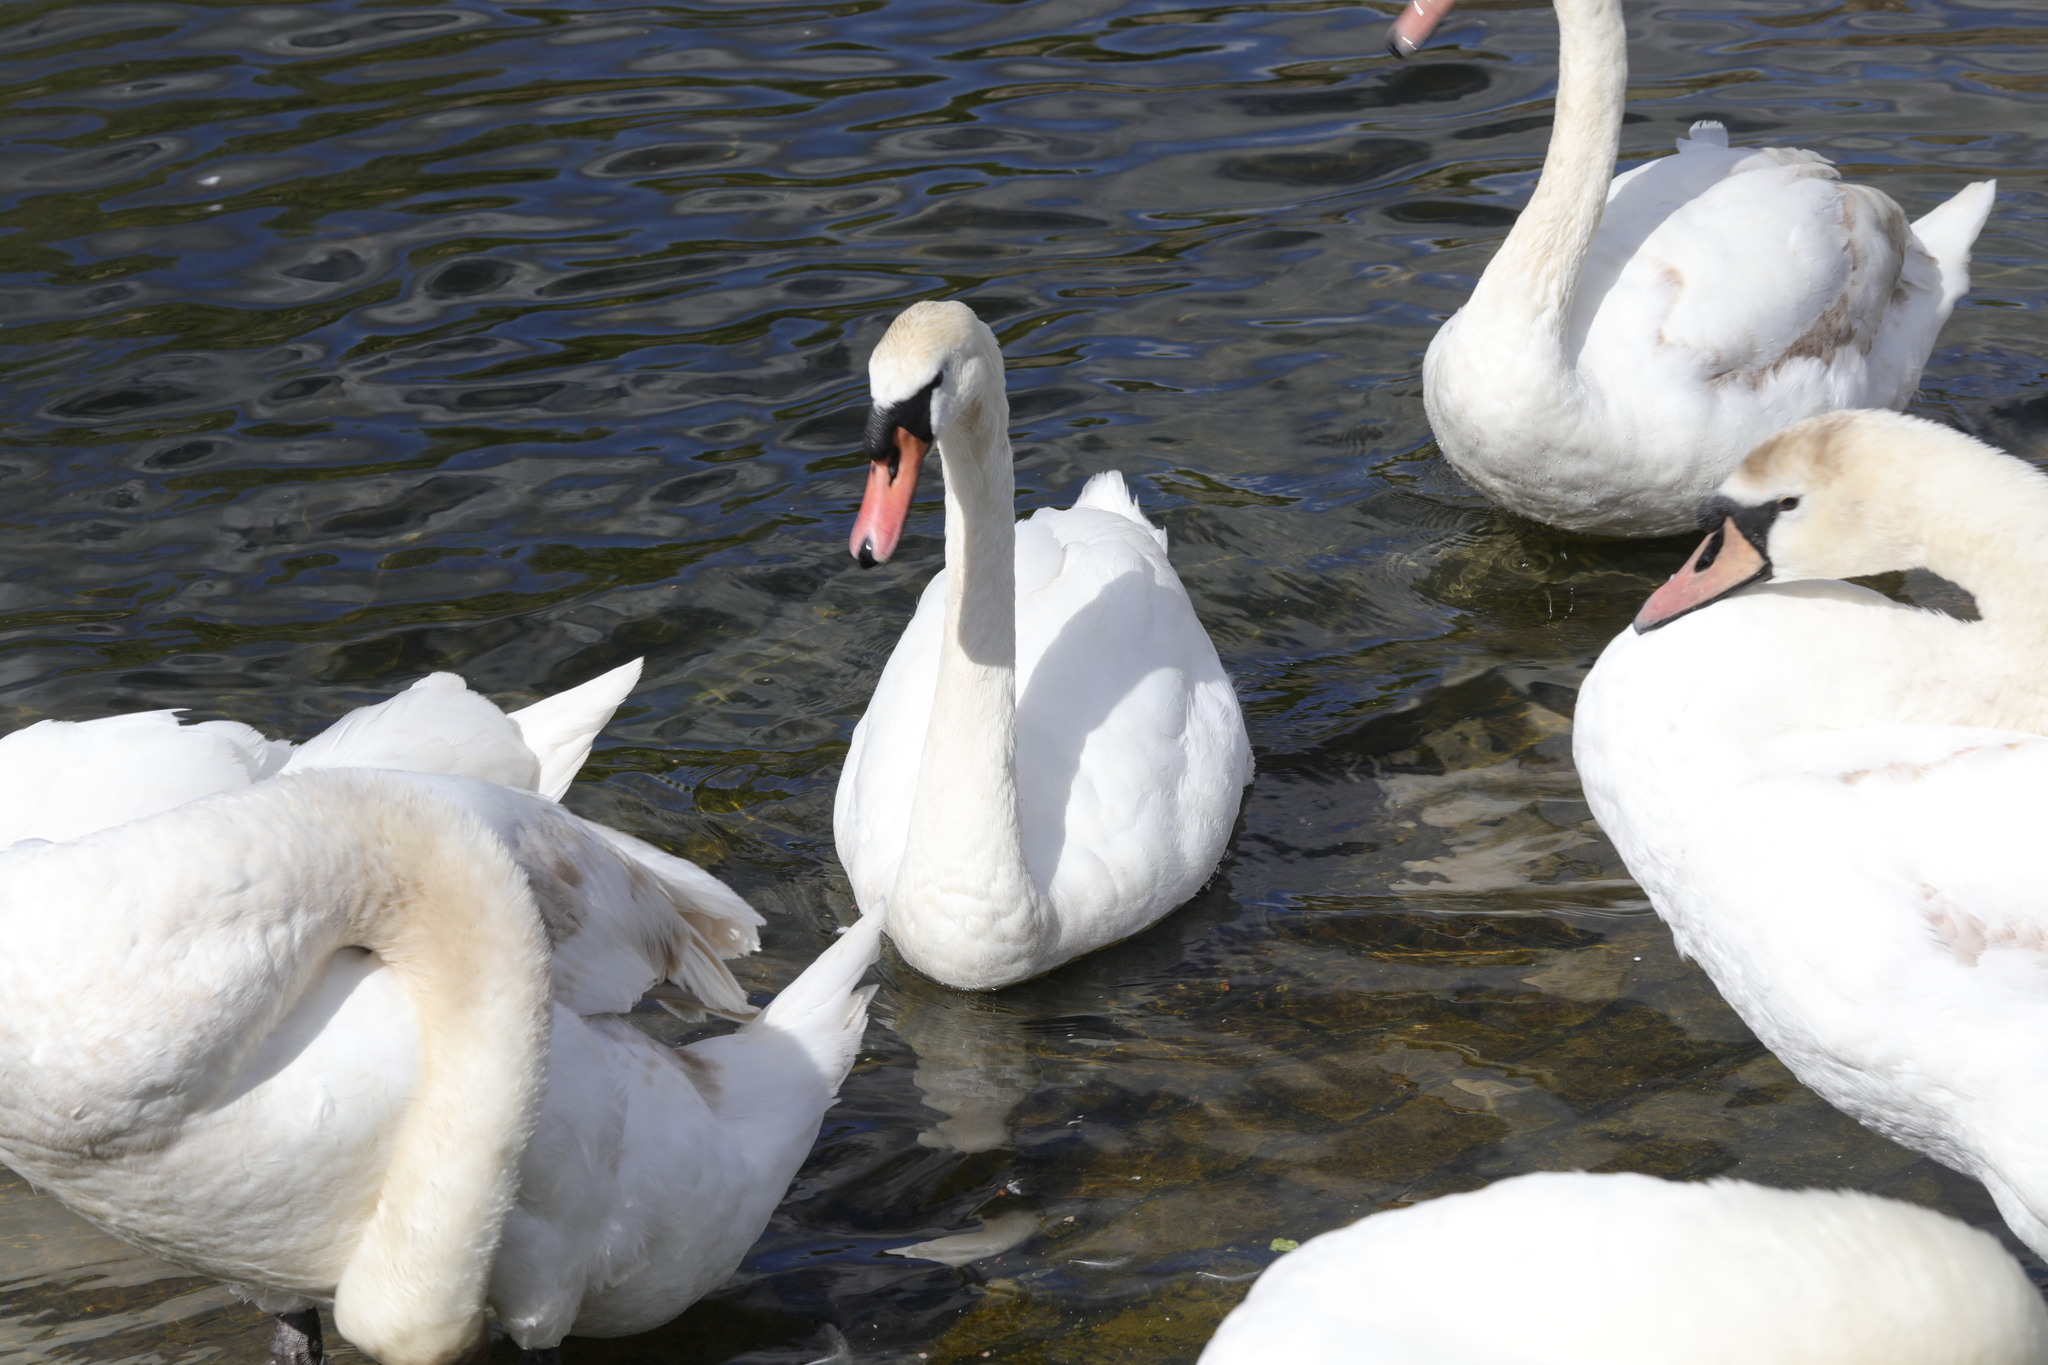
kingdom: Animalia
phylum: Chordata
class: Aves
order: Anseriformes
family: Anatidae
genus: Cygnus
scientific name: Cygnus olor
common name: Mute swan
